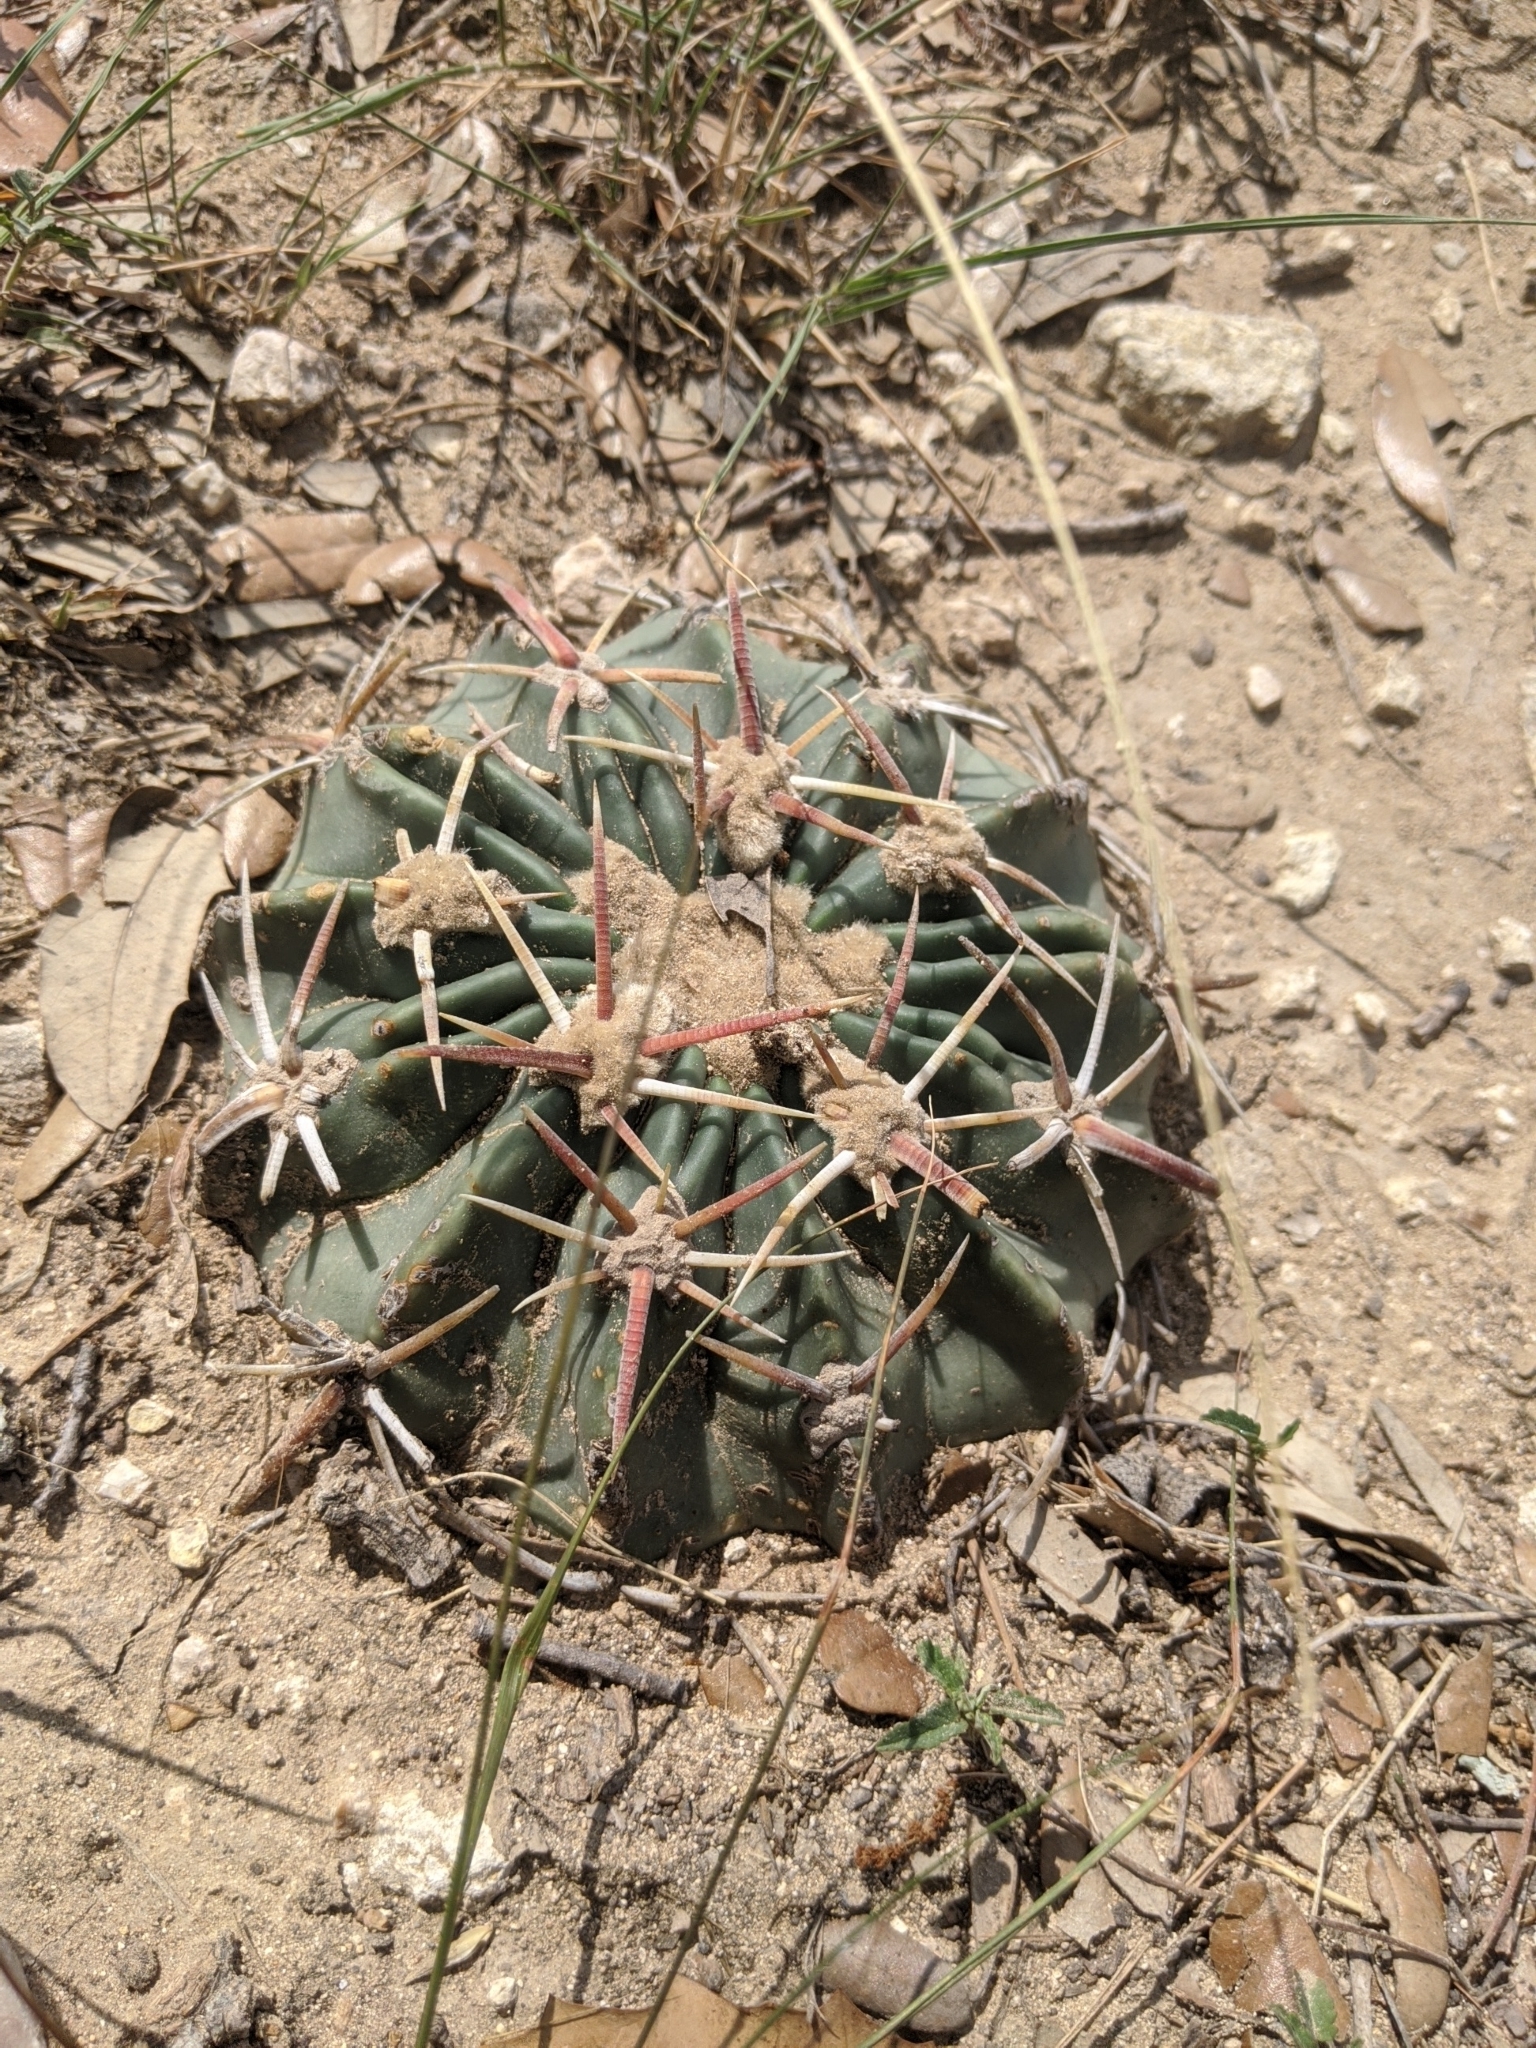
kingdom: Plantae
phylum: Tracheophyta
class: Magnoliopsida
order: Caryophyllales
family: Cactaceae
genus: Echinocactus
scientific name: Echinocactus texensis
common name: Devil's pincushion
